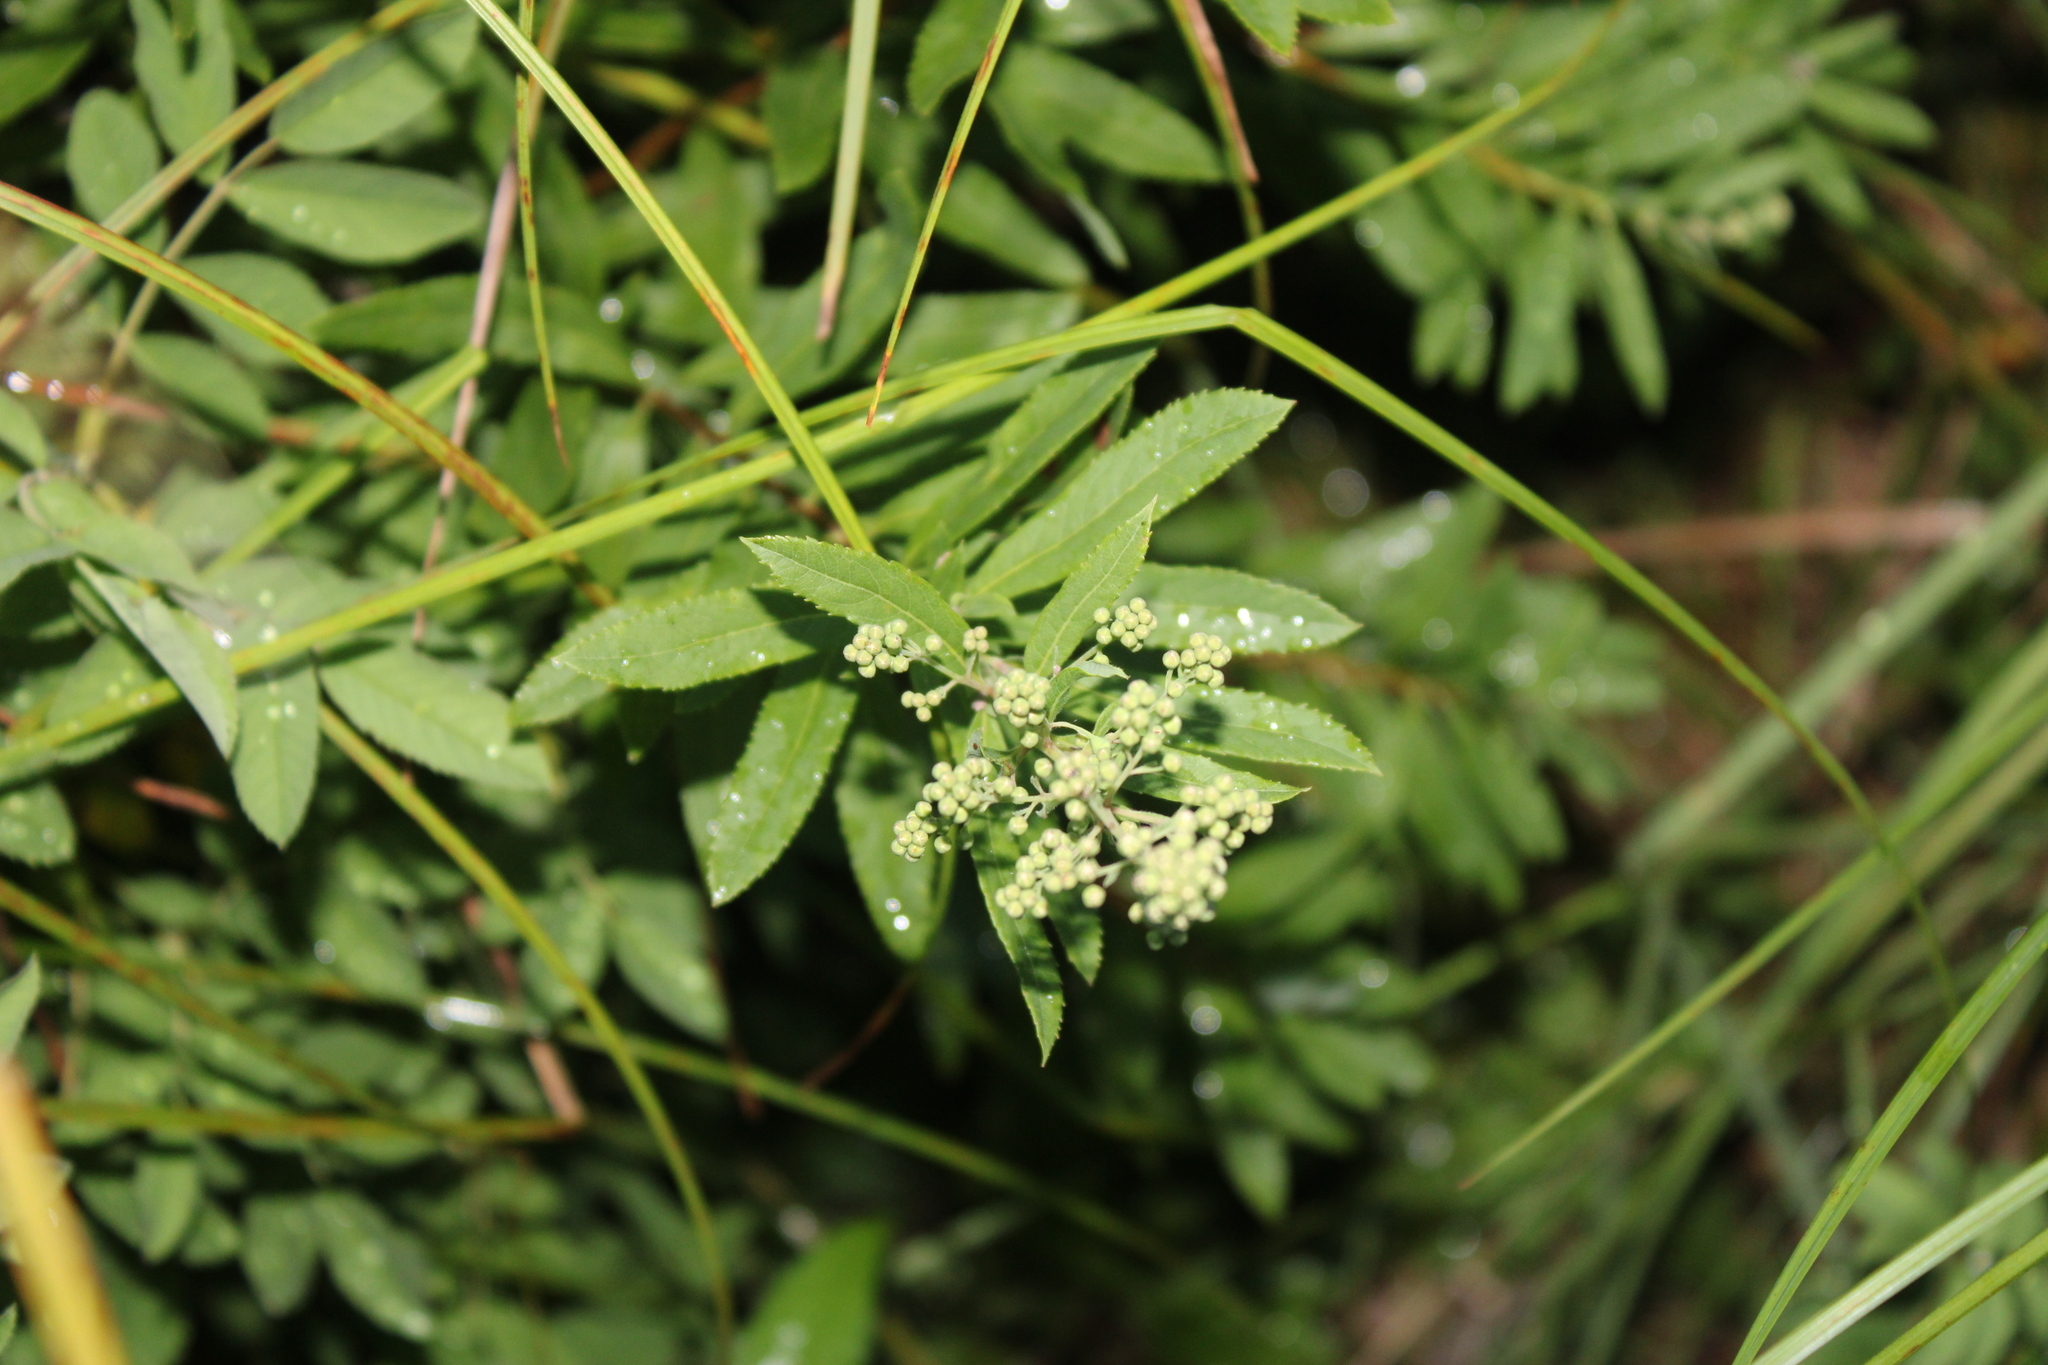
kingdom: Plantae
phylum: Tracheophyta
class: Magnoliopsida
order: Rosales
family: Rosaceae
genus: Spiraea
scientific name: Spiraea alba
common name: Pale bridewort
